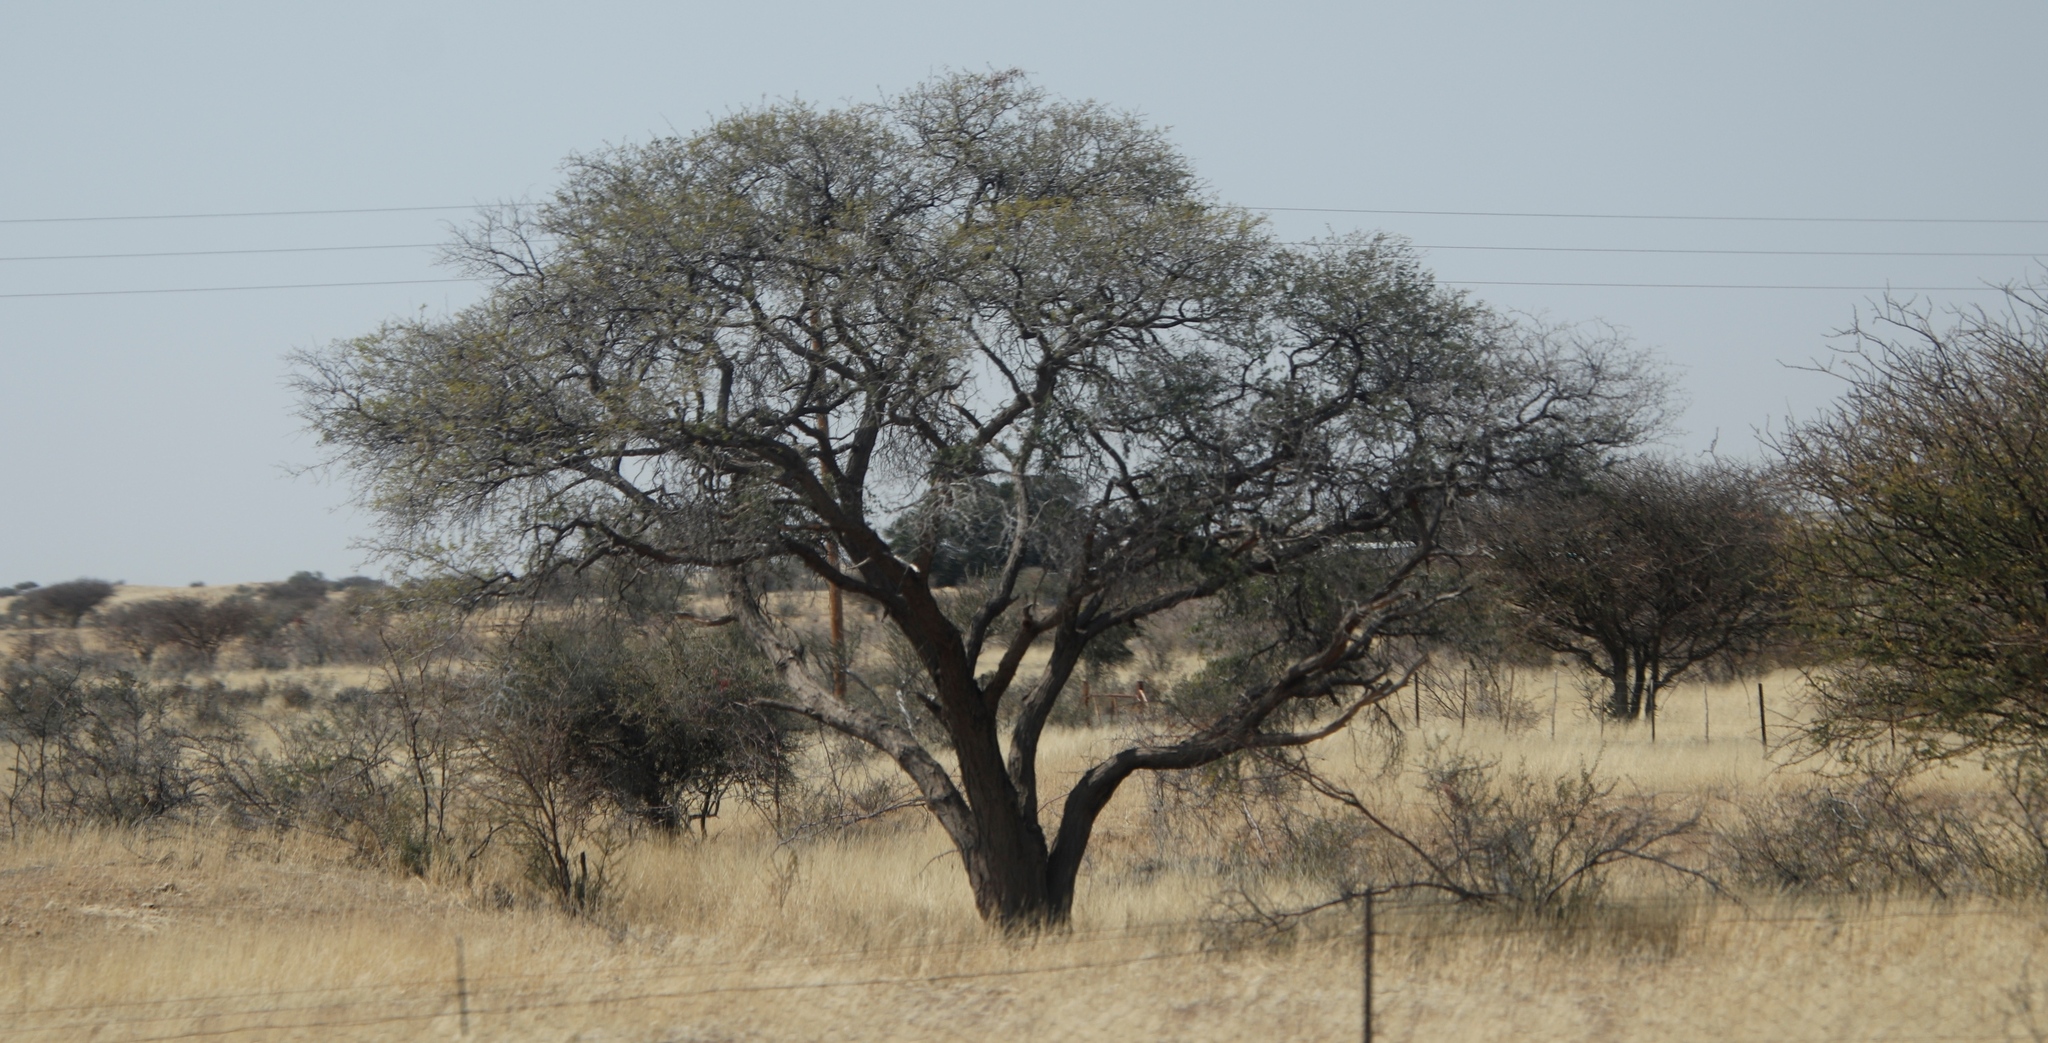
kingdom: Plantae
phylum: Tracheophyta
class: Magnoliopsida
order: Fabales
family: Fabaceae
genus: Vachellia
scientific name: Vachellia erioloba
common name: Camel thorn
